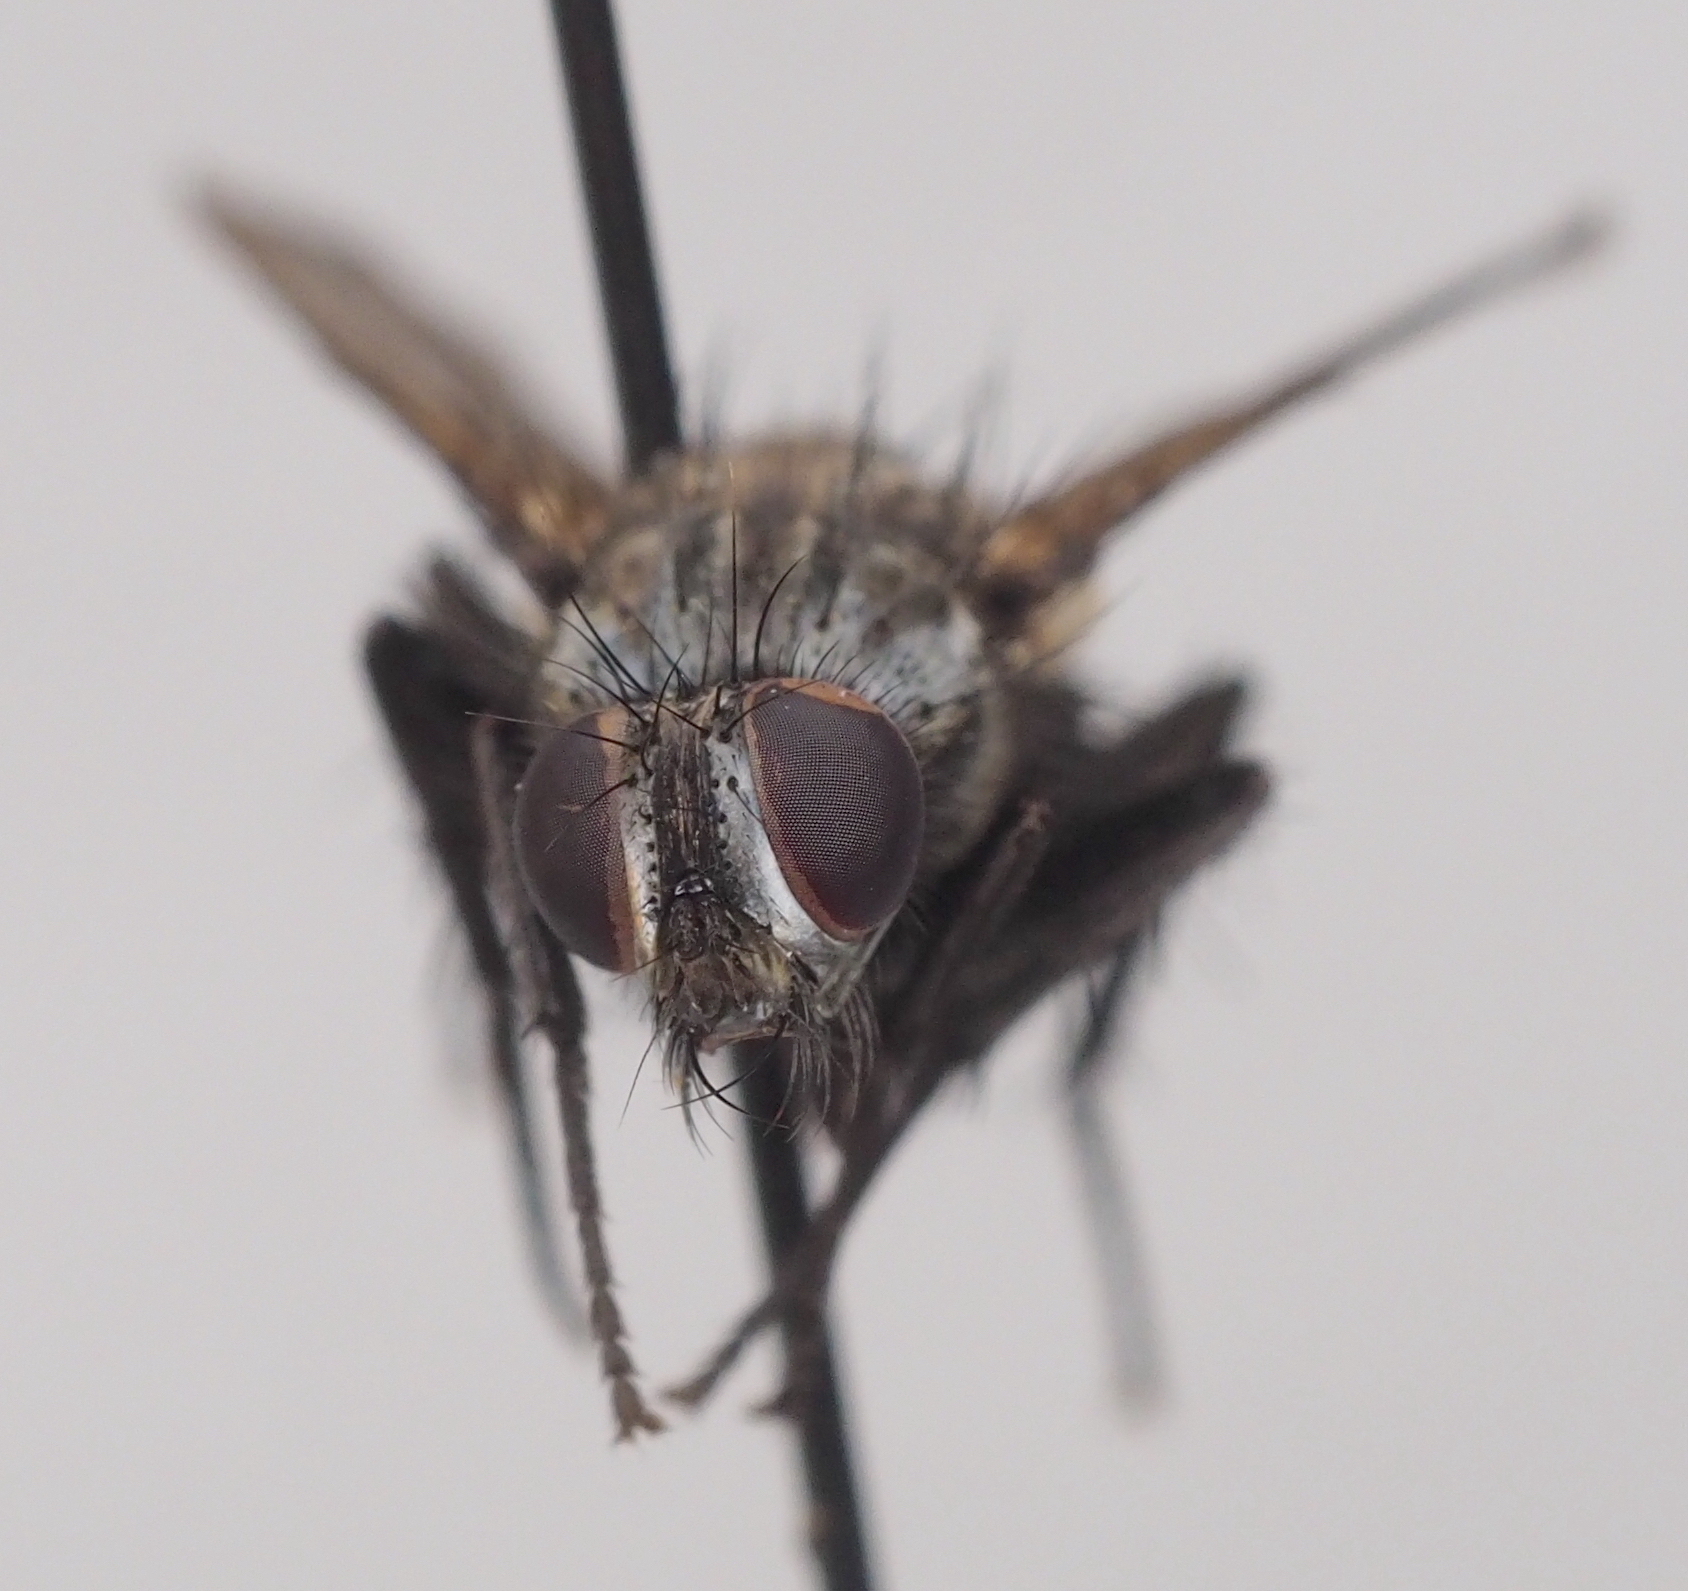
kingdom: Animalia
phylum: Arthropoda
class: Insecta
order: Diptera
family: Calliphoridae
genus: Rhinomorinia
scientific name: Rhinomorinia sarcophagina
